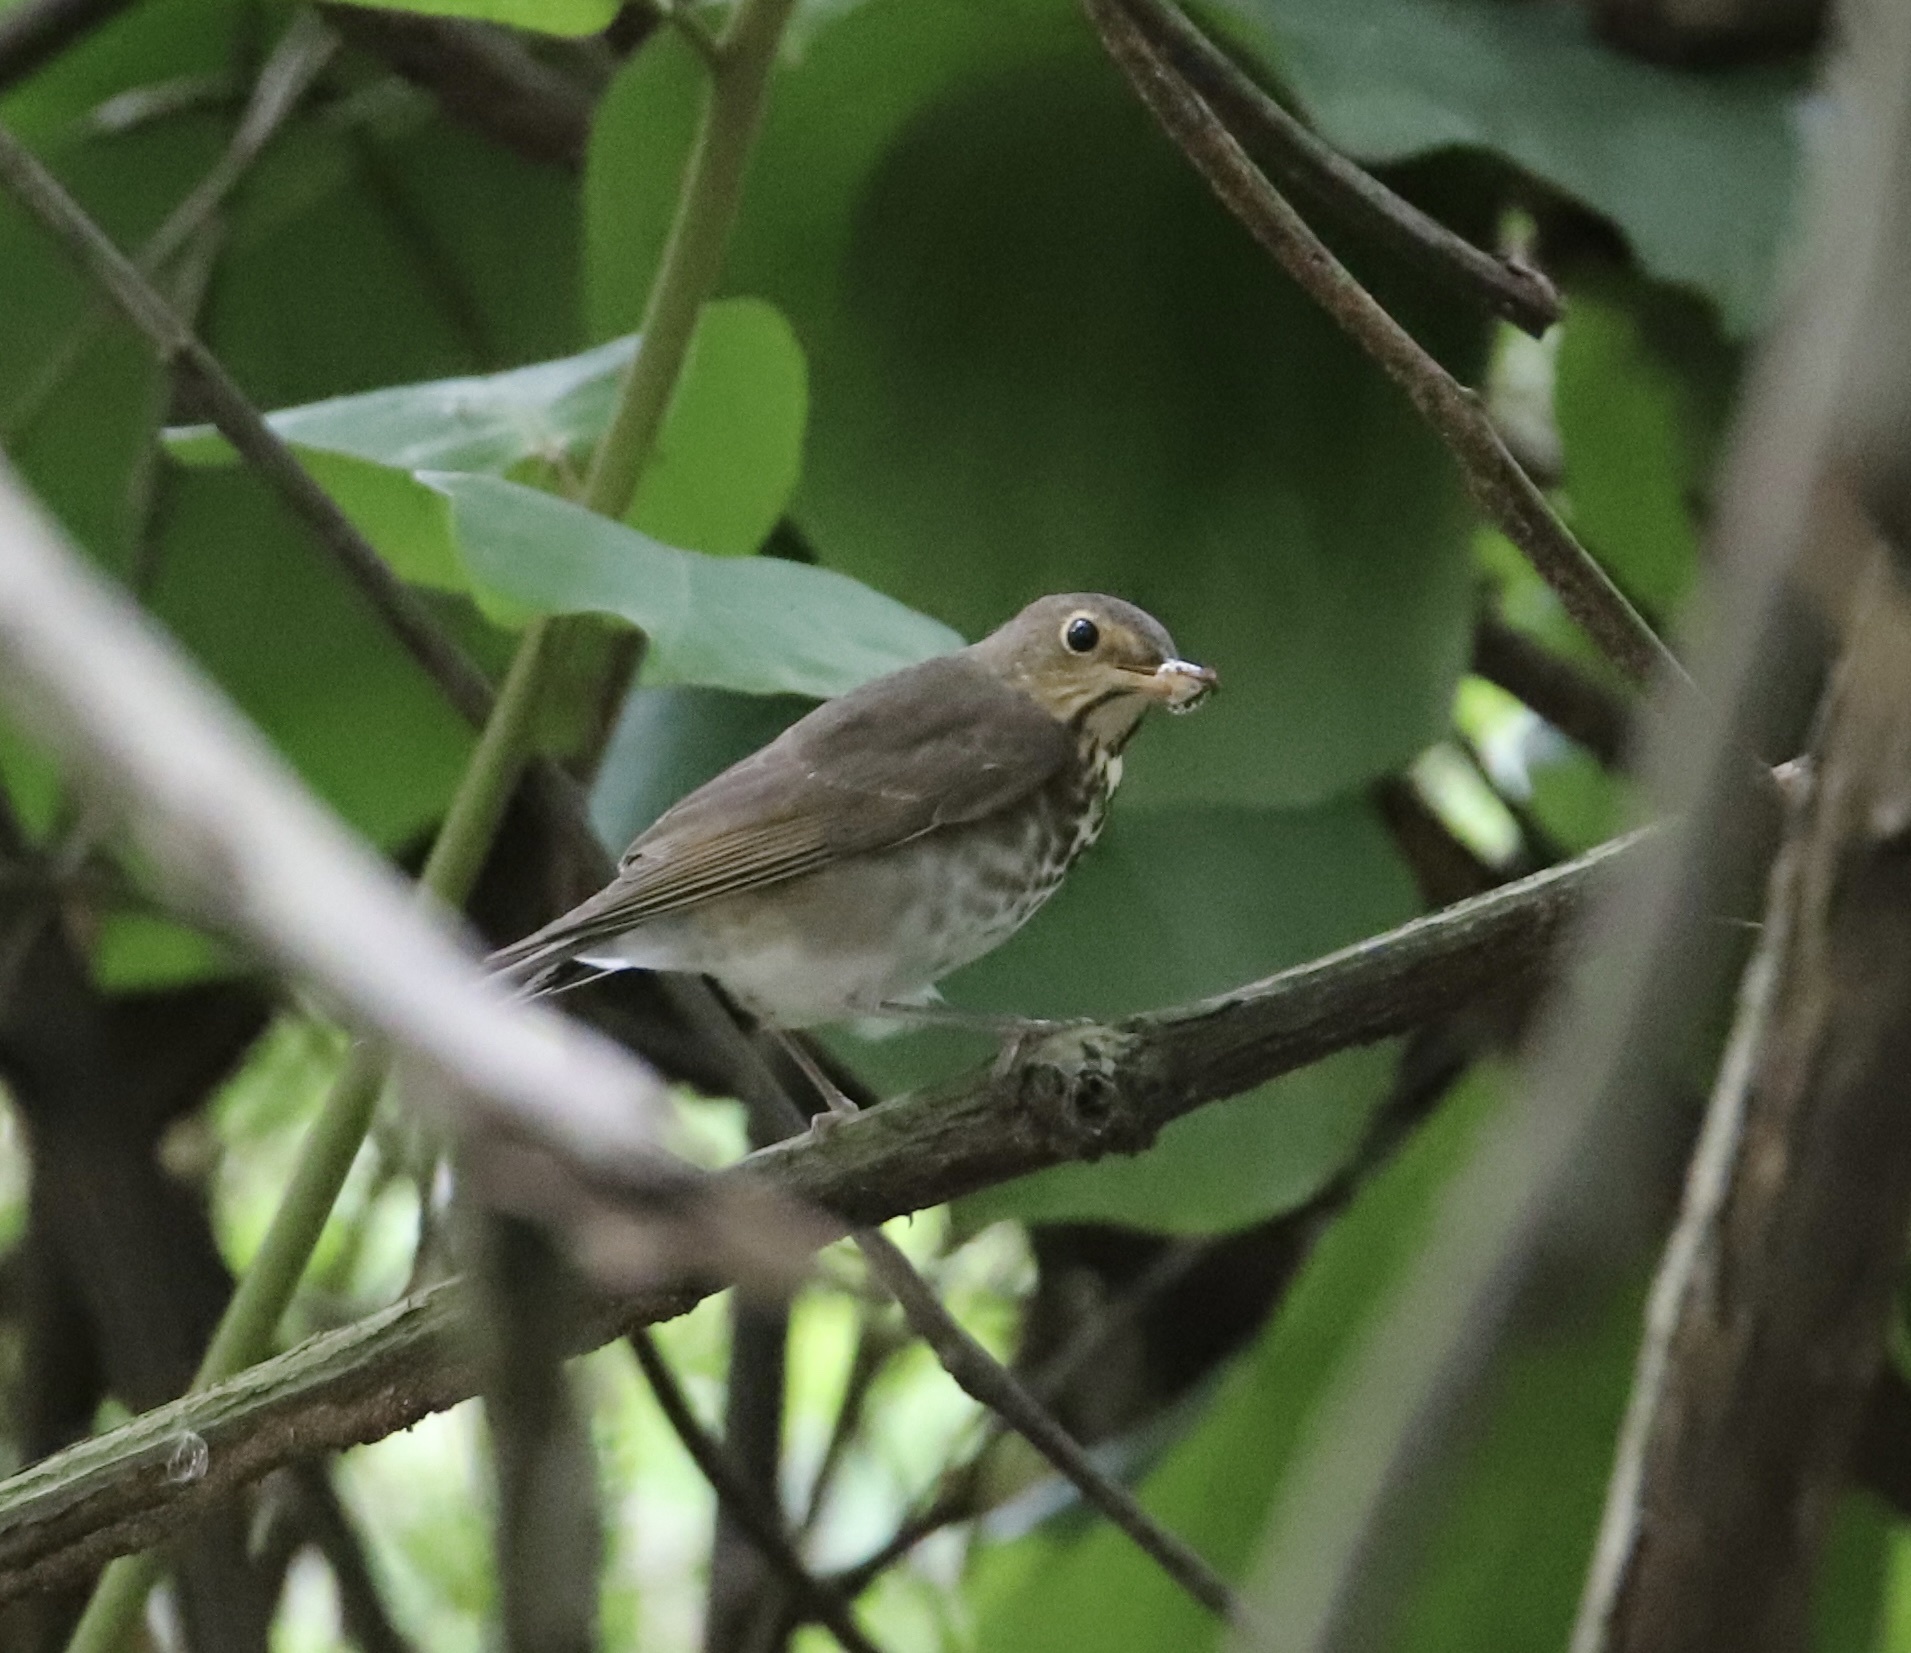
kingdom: Animalia
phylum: Chordata
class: Aves
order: Passeriformes
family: Turdidae
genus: Catharus
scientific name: Catharus ustulatus
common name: Swainson's thrush
